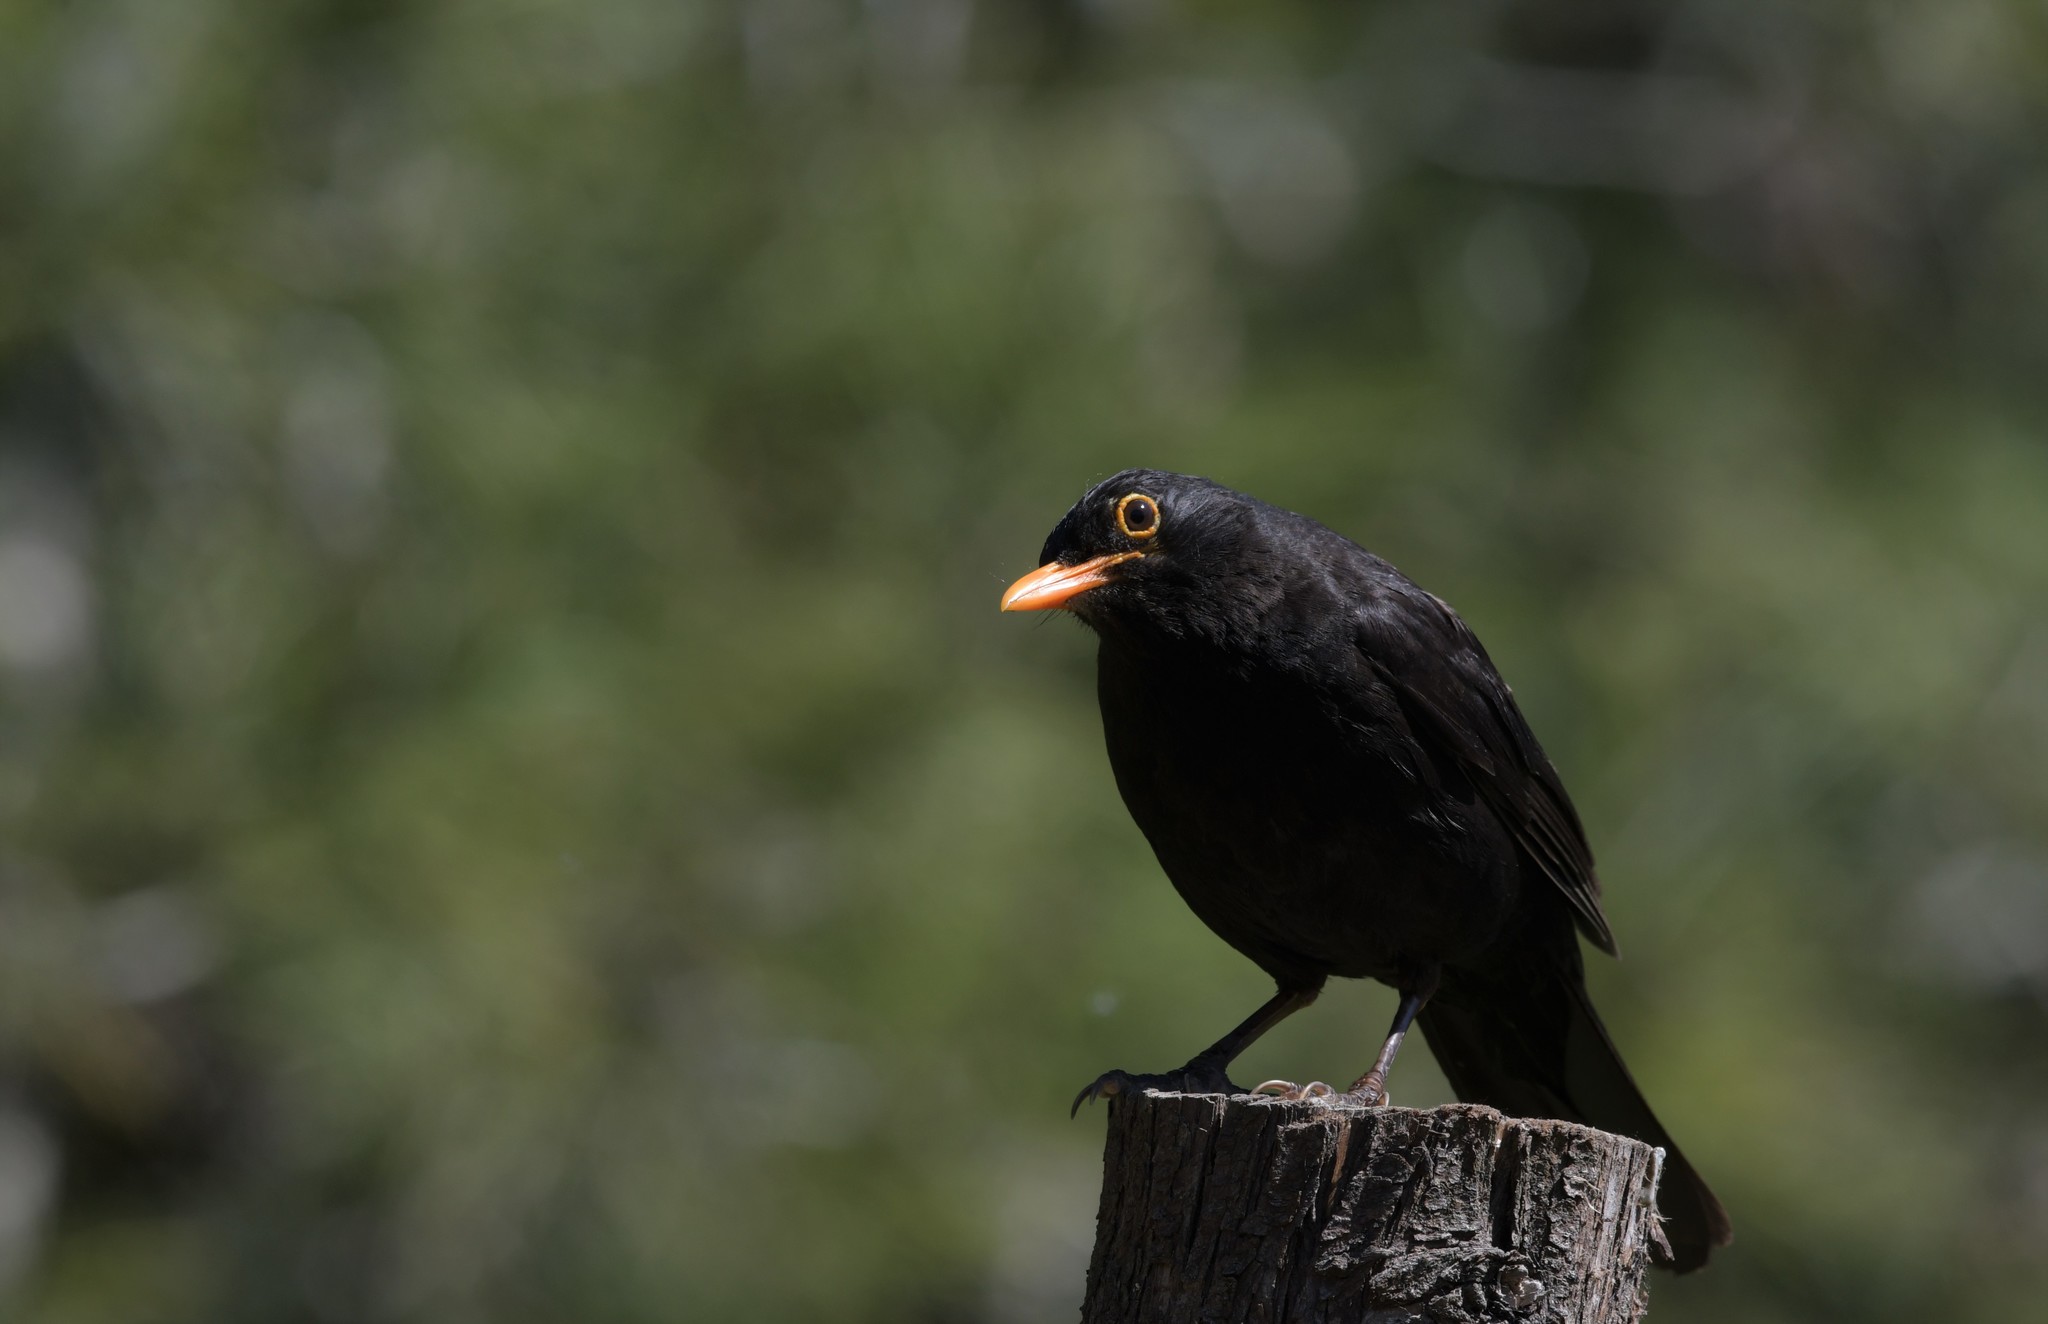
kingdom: Animalia
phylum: Chordata
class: Aves
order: Passeriformes
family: Turdidae
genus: Turdus
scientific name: Turdus merula
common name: Common blackbird
